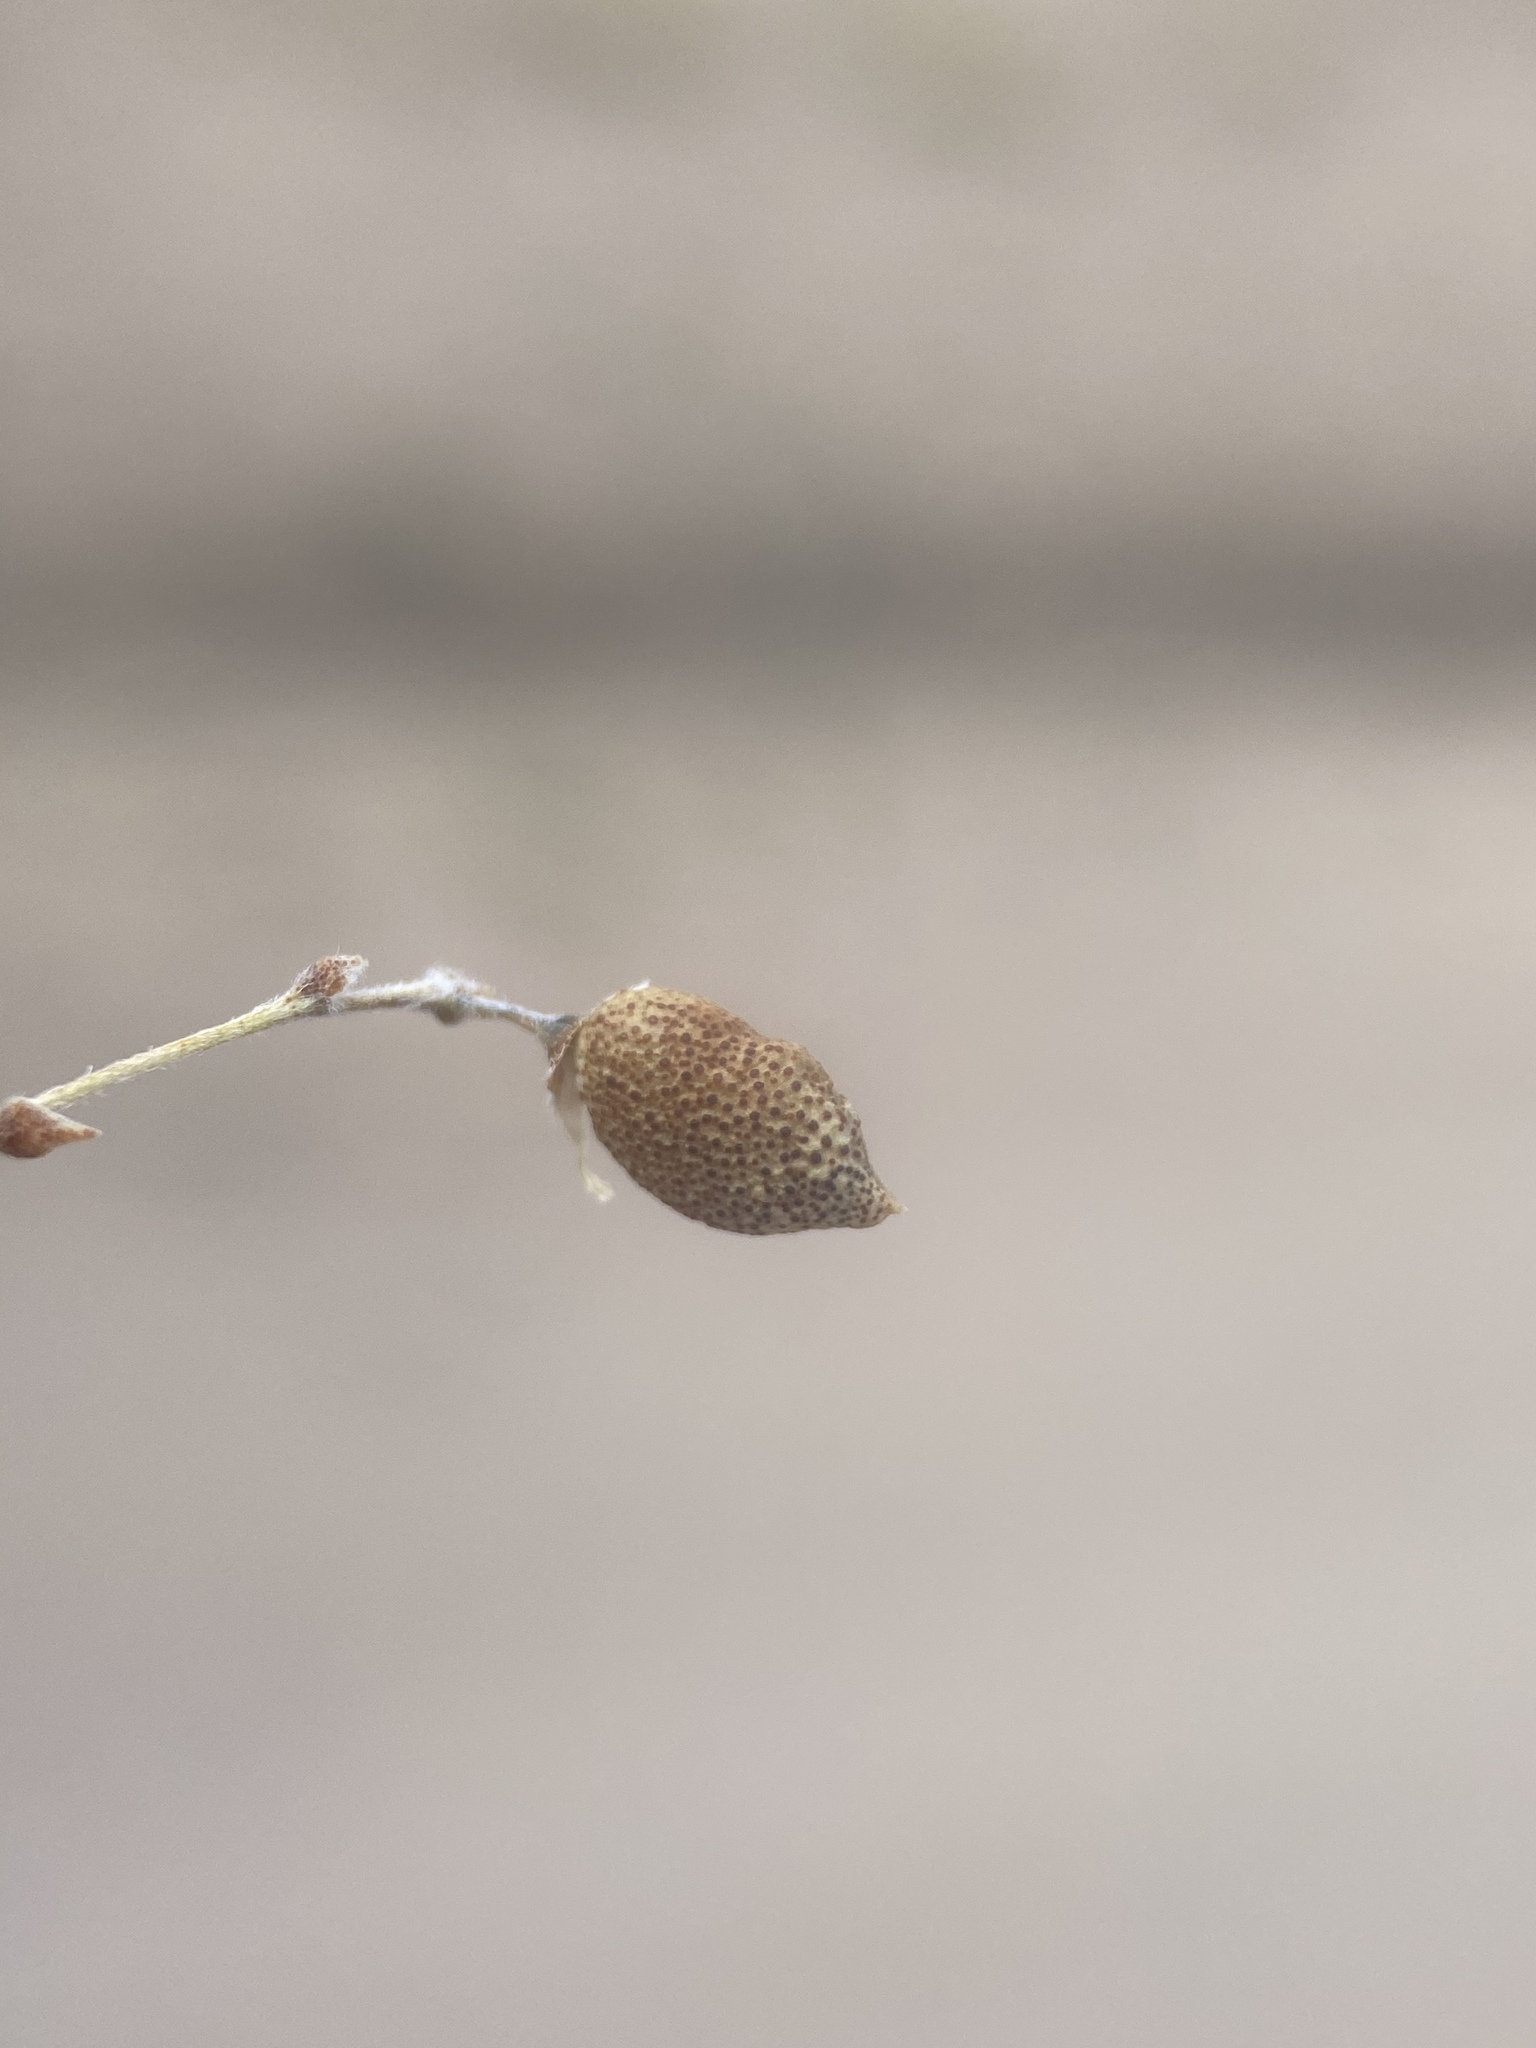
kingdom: Plantae
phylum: Tracheophyta
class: Magnoliopsida
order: Fabales
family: Fabaceae
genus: Pediomelum
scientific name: Pediomelum tenuiflorum
